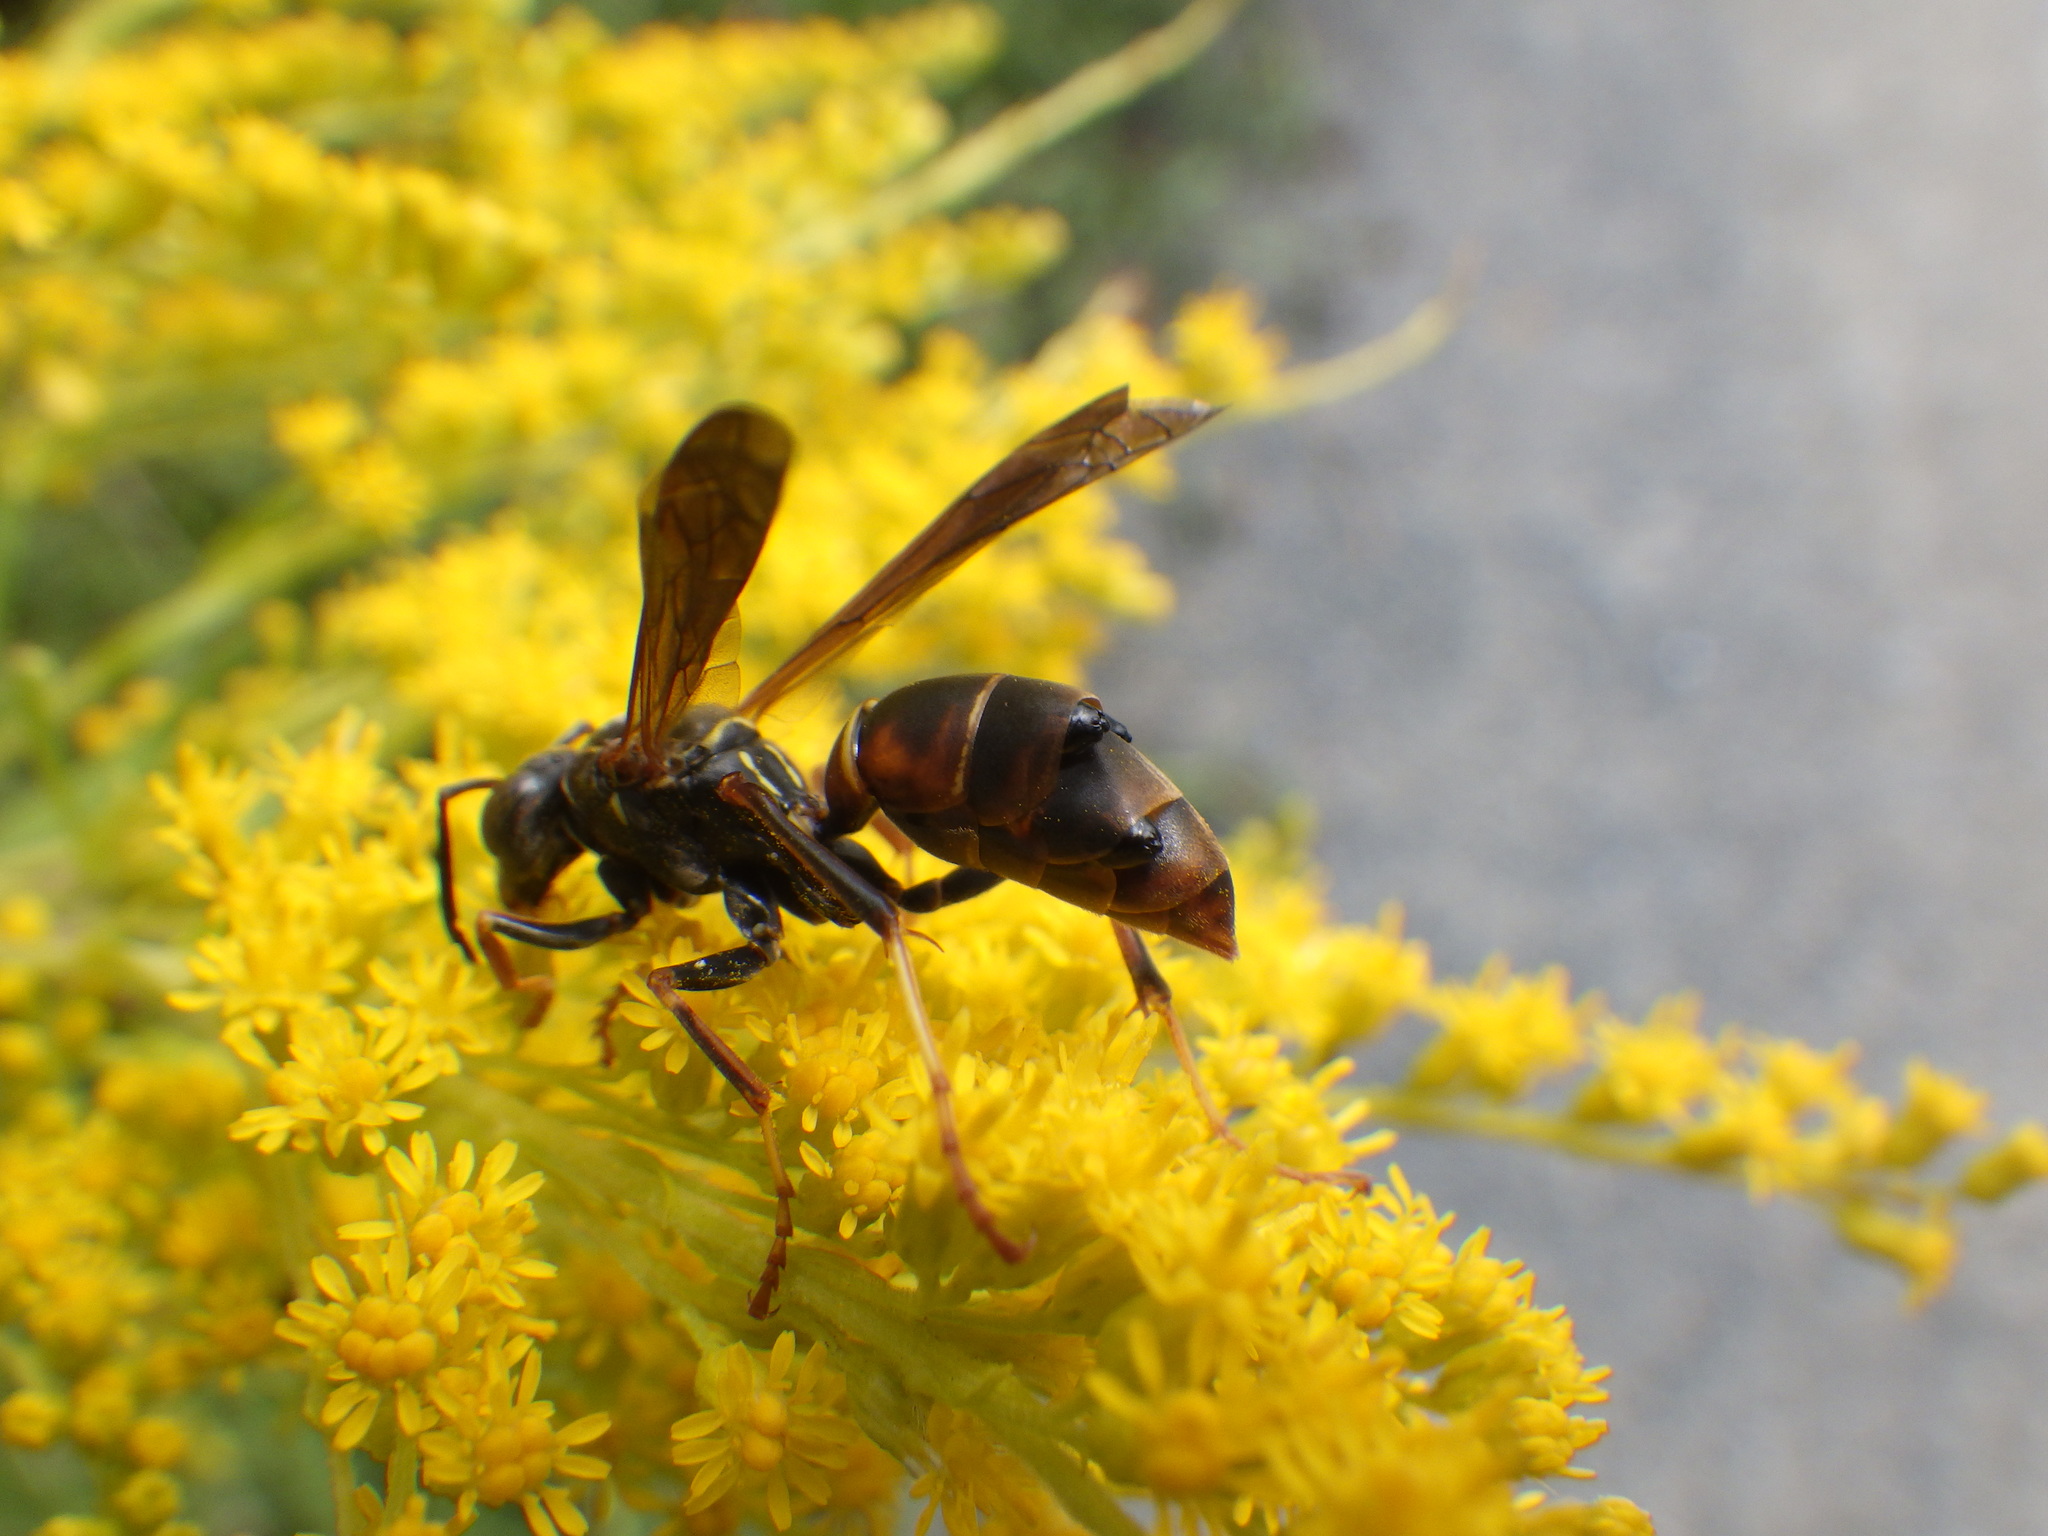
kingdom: Animalia
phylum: Arthropoda
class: Insecta
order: Strepsiptera
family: Xenidae
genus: Xenos
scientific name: Xenos pecki
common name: Twisted wing parasite
